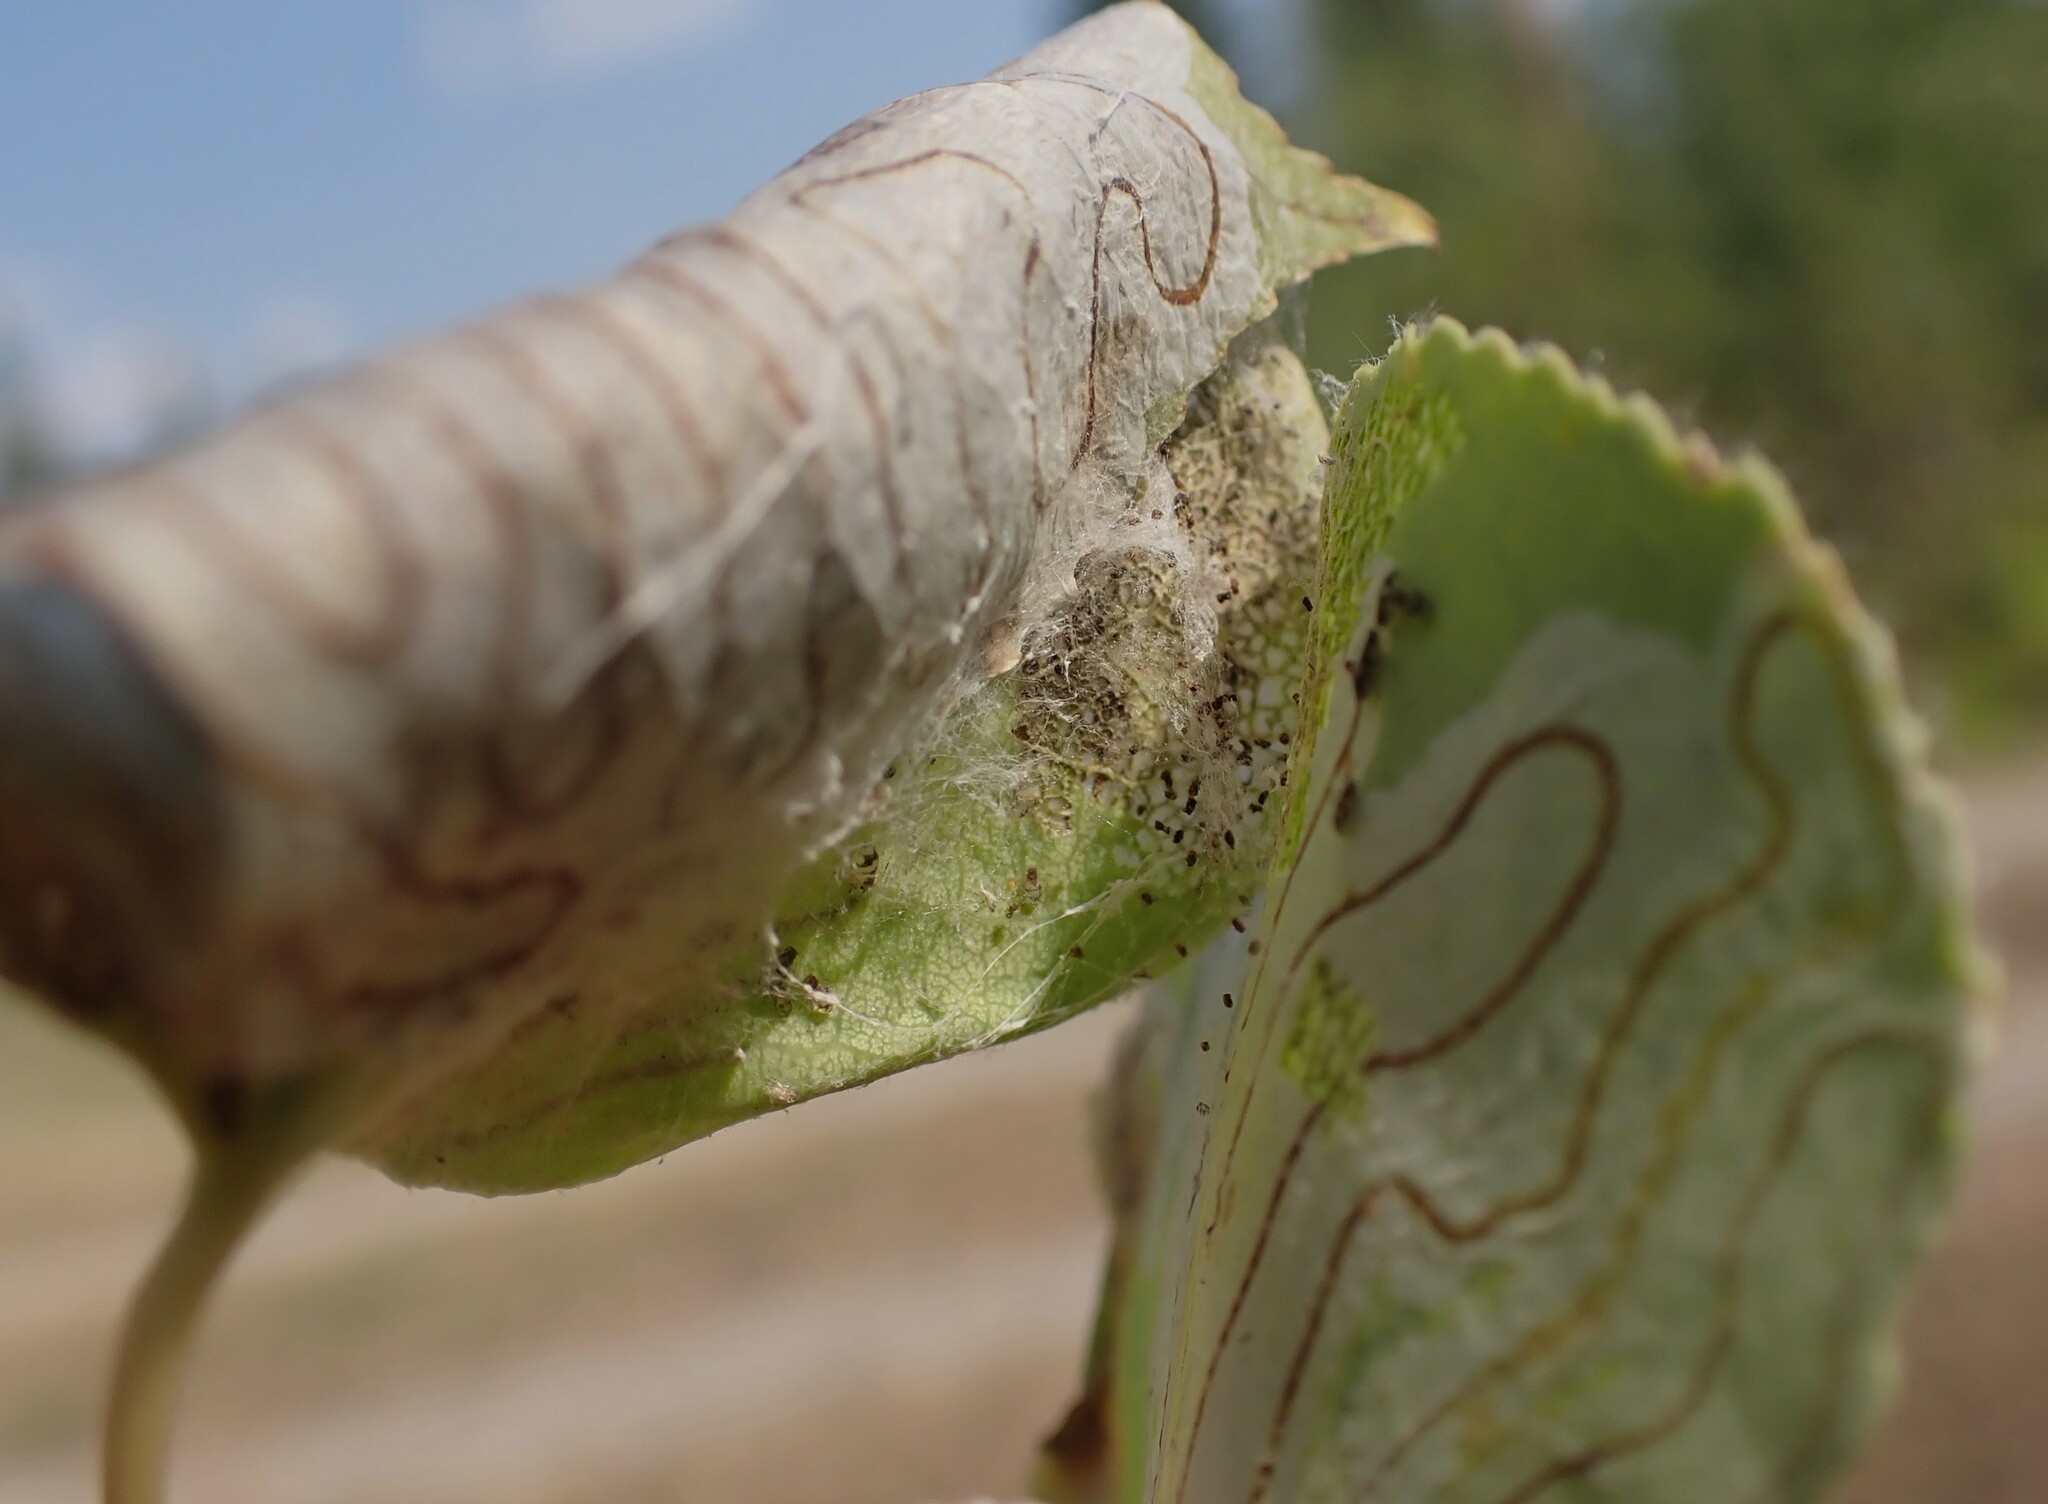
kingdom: Animalia
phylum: Arthropoda
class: Insecta
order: Lepidoptera
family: Gracillariidae
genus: Phyllocnistis
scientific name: Phyllocnistis populiella
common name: Aspen serpentine leafminer moth
